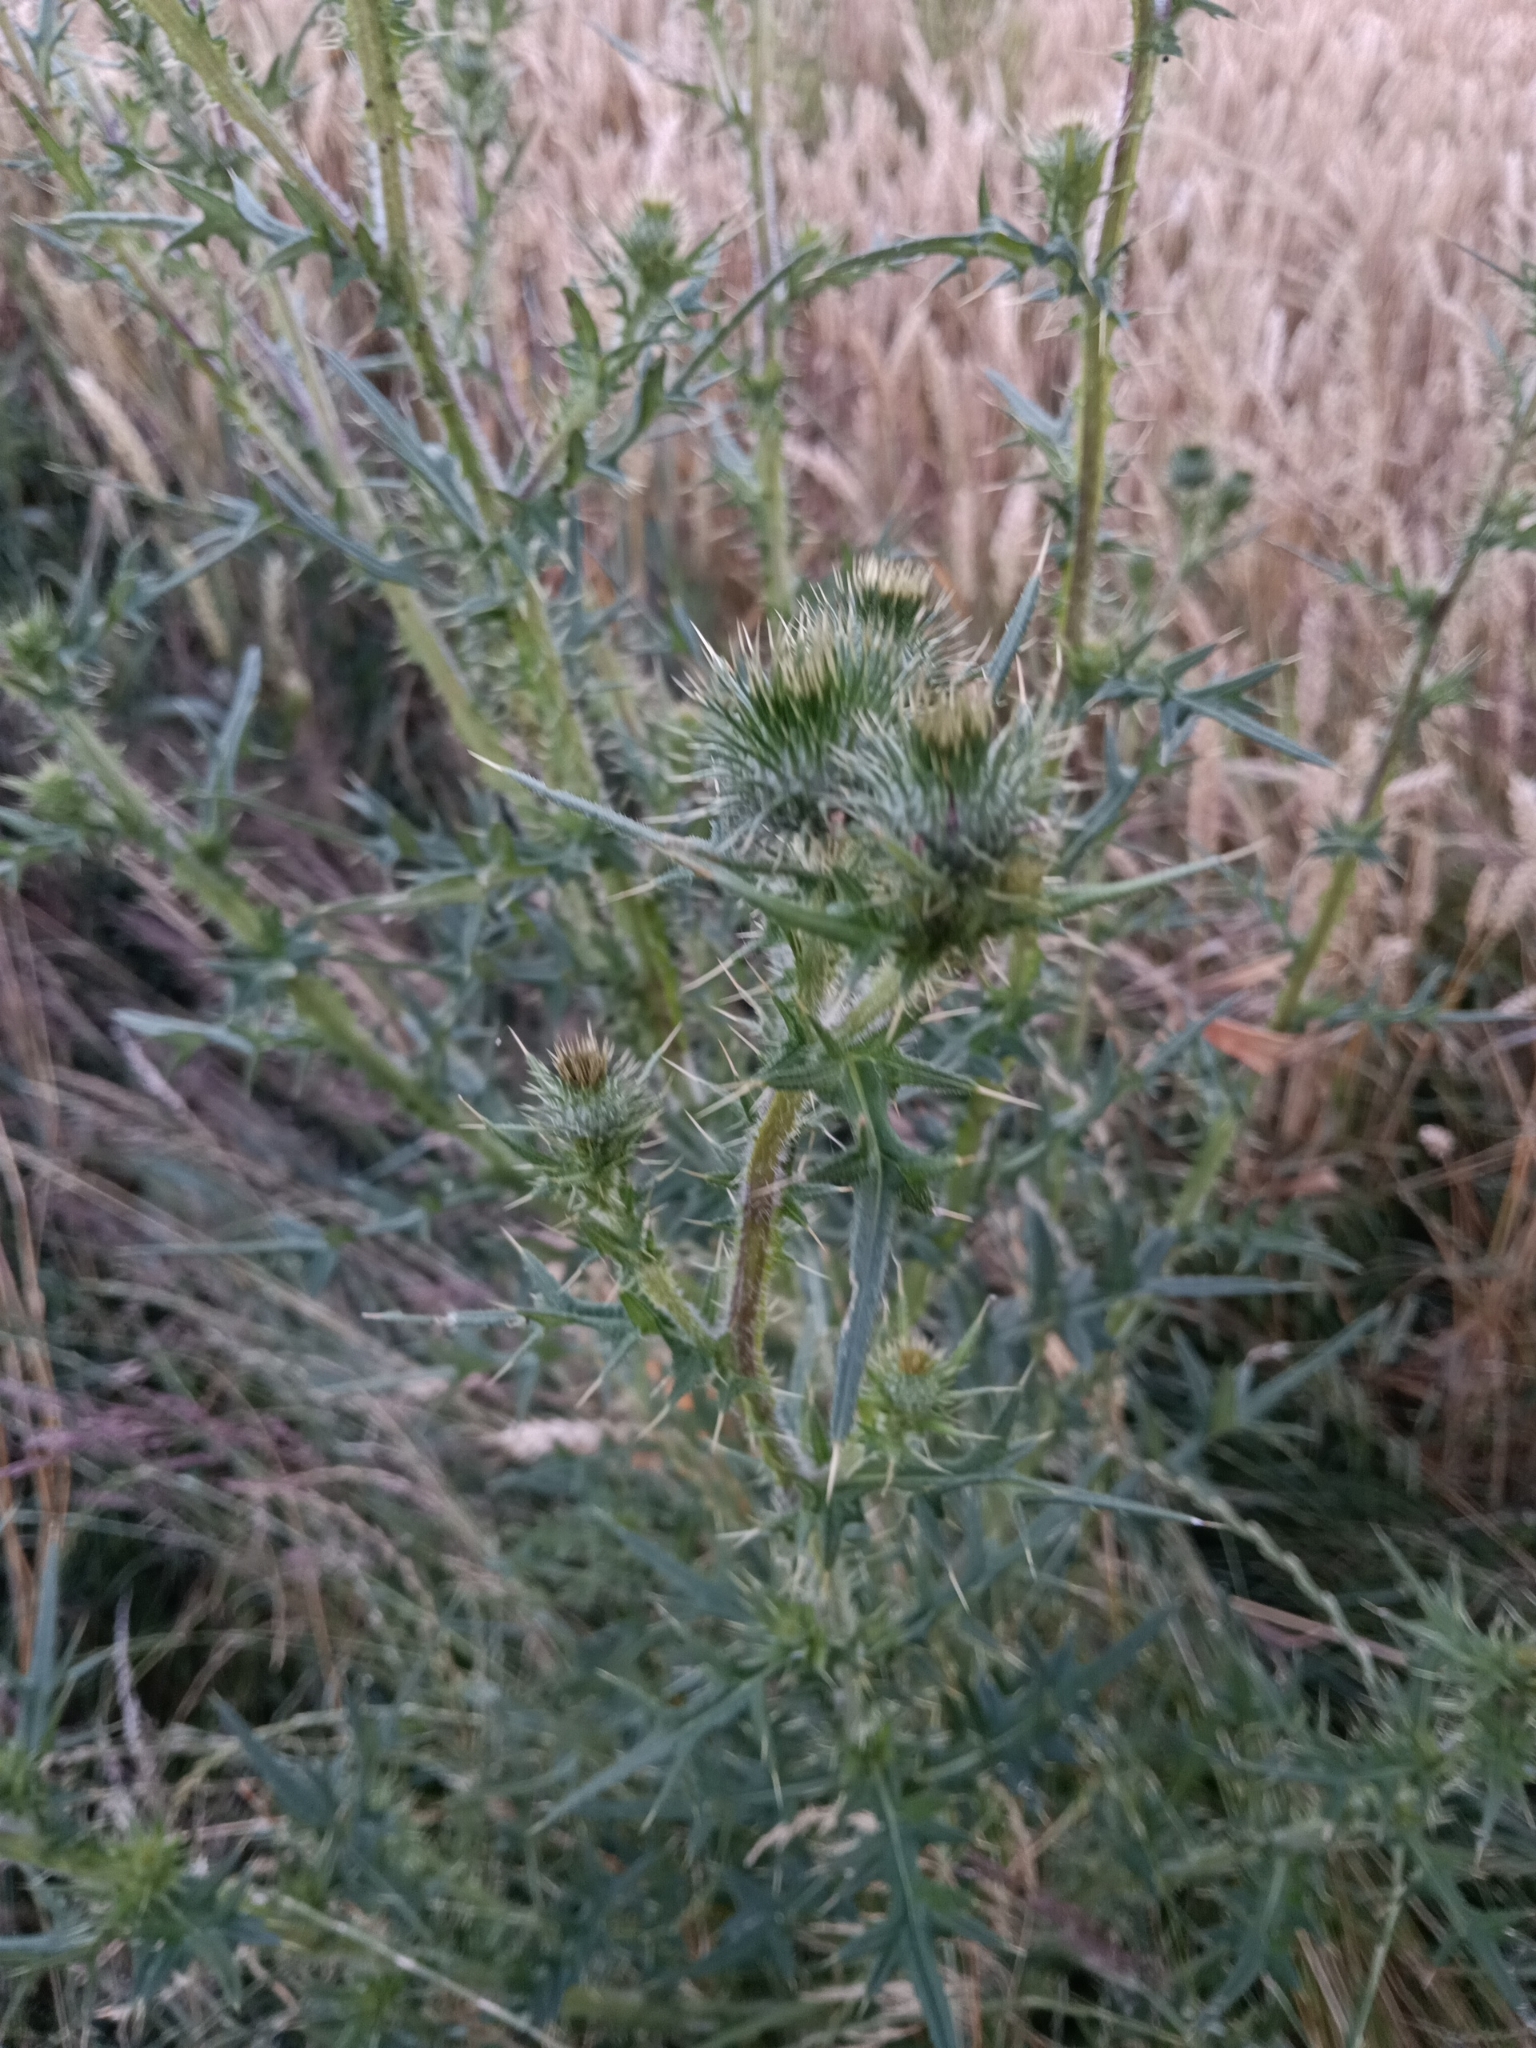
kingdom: Plantae
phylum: Tracheophyta
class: Magnoliopsida
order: Asterales
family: Asteraceae
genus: Cirsium
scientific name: Cirsium vulgare
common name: Bull thistle
